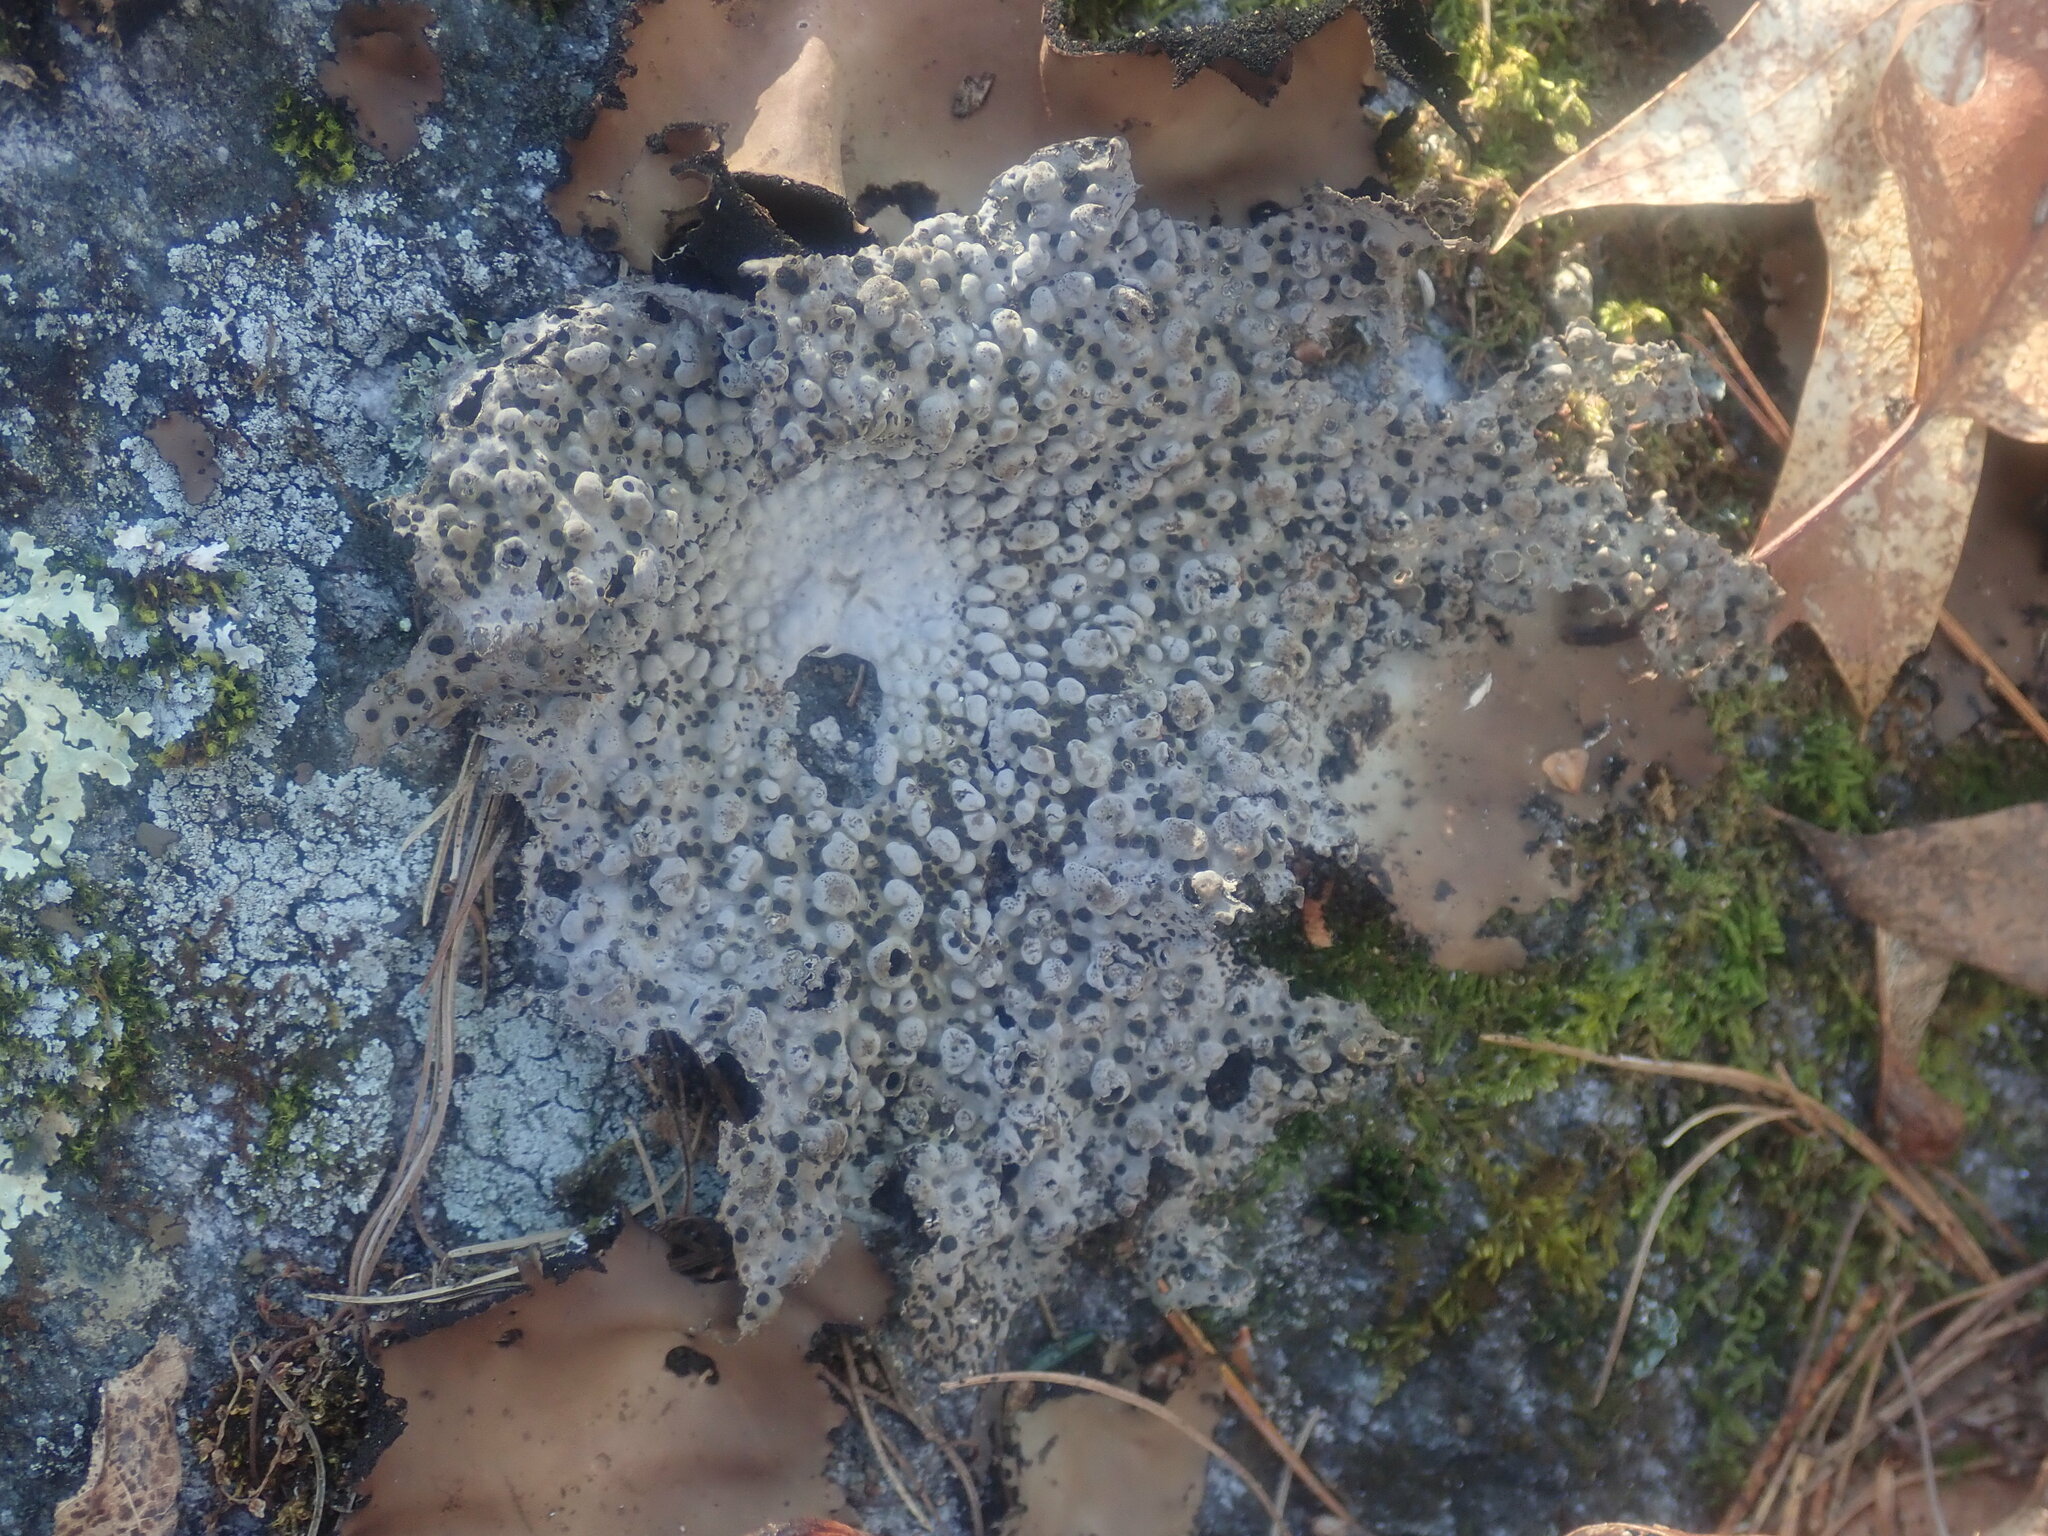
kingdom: Fungi
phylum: Ascomycota
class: Lecanoromycetes
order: Umbilicariales
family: Umbilicariaceae
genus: Lasallia
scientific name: Lasallia papulosa
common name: Common toadskin lichen
